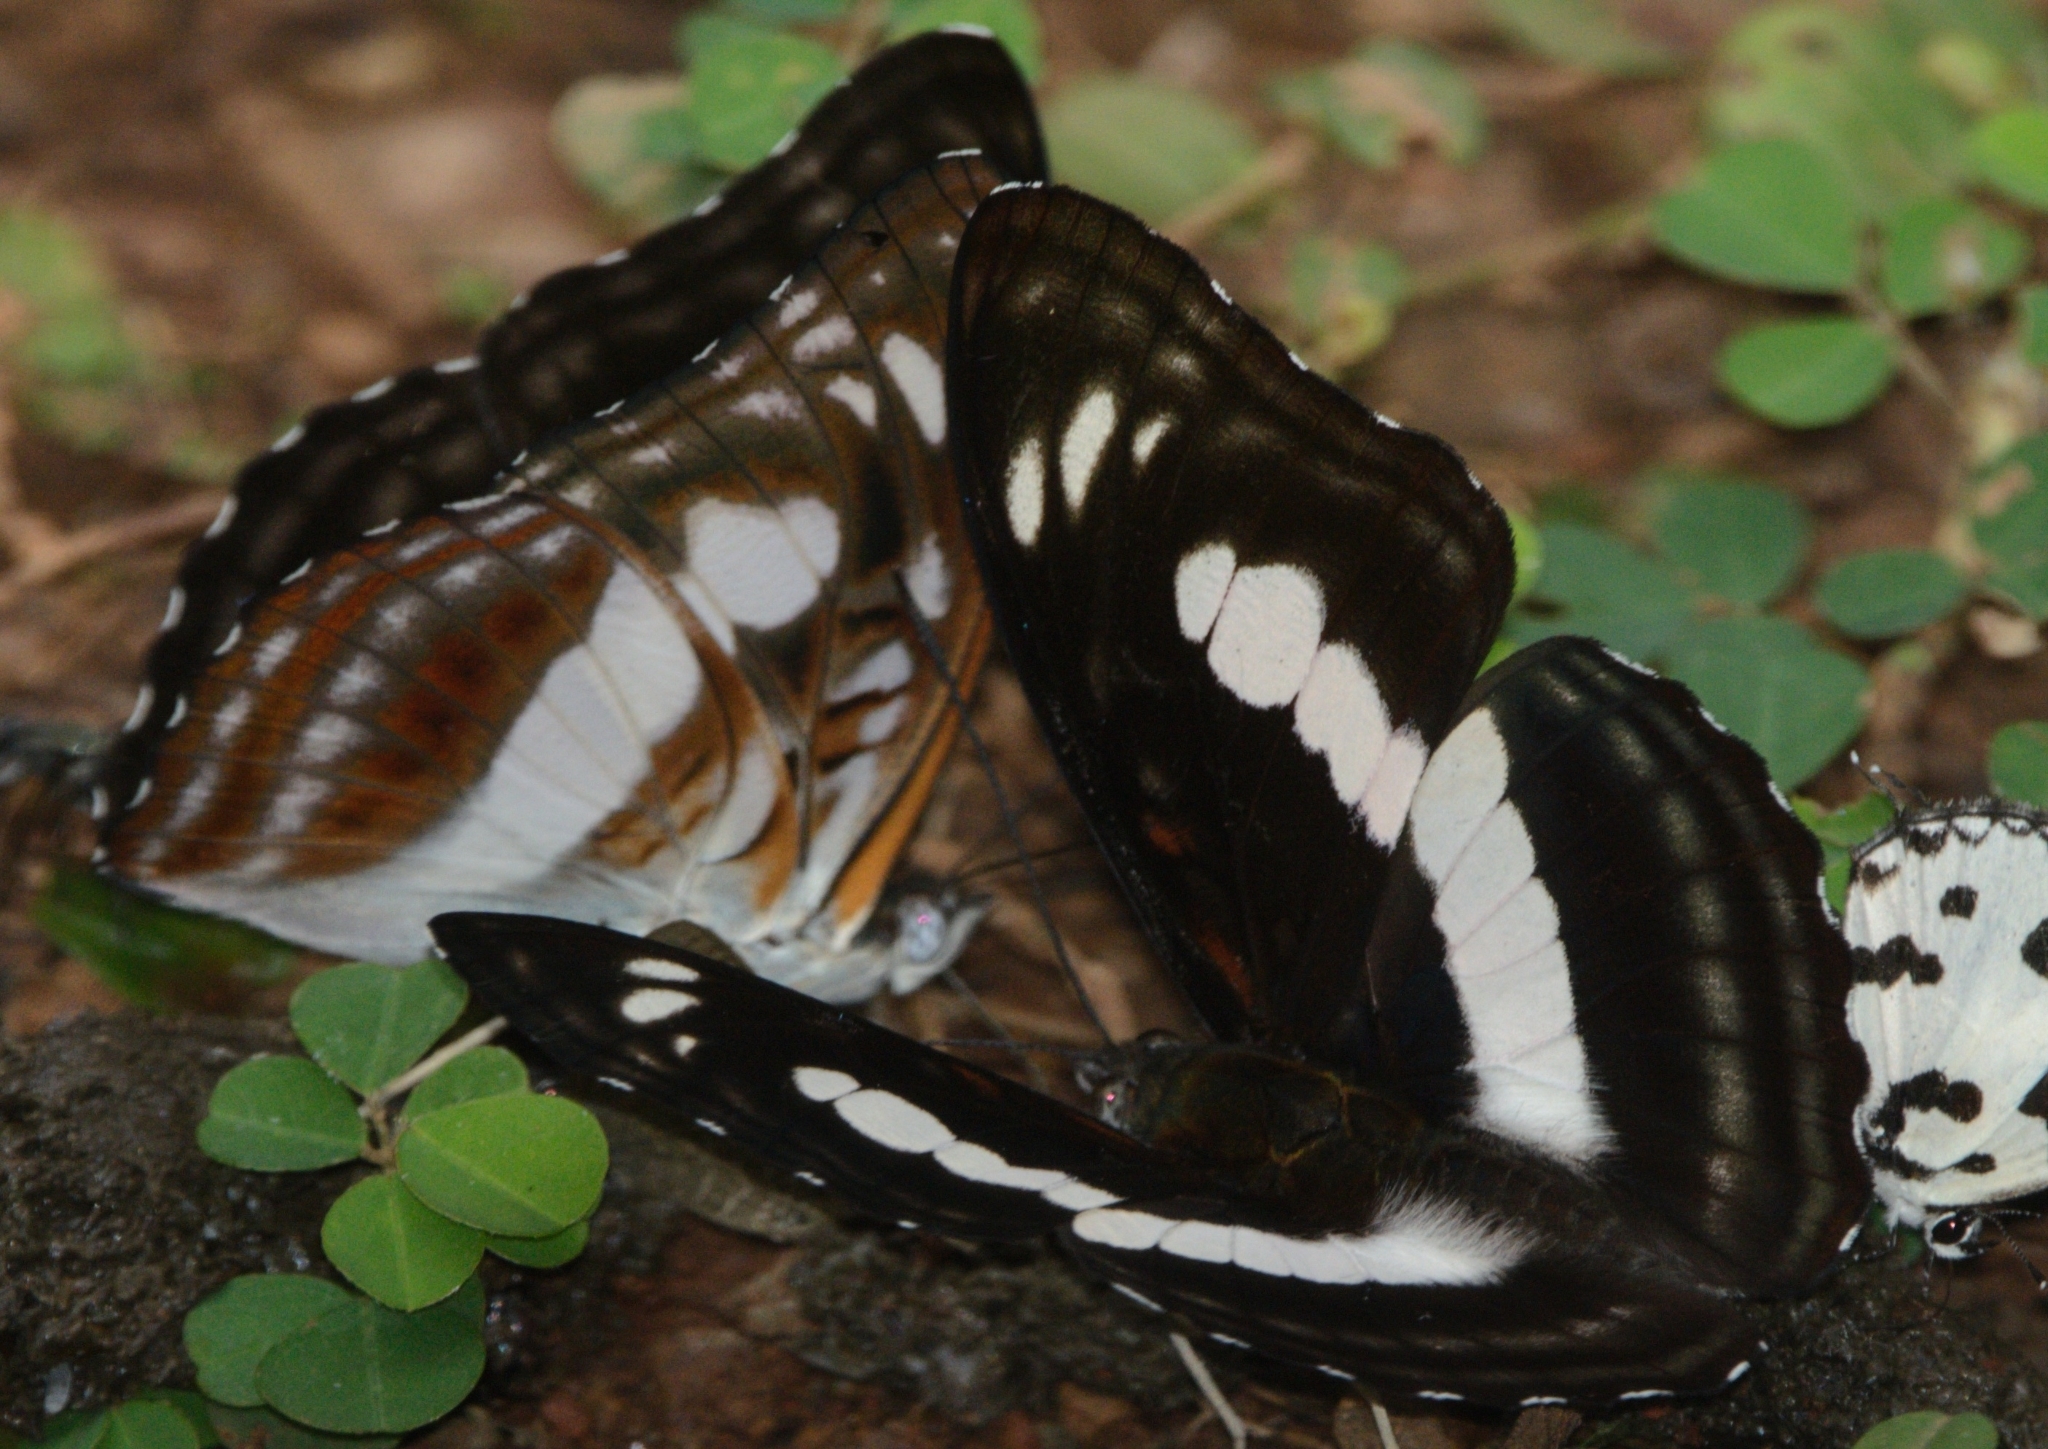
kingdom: Animalia
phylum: Arthropoda
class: Insecta
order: Lepidoptera
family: Nymphalidae
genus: Parathyma
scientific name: Parathyma selenophora
